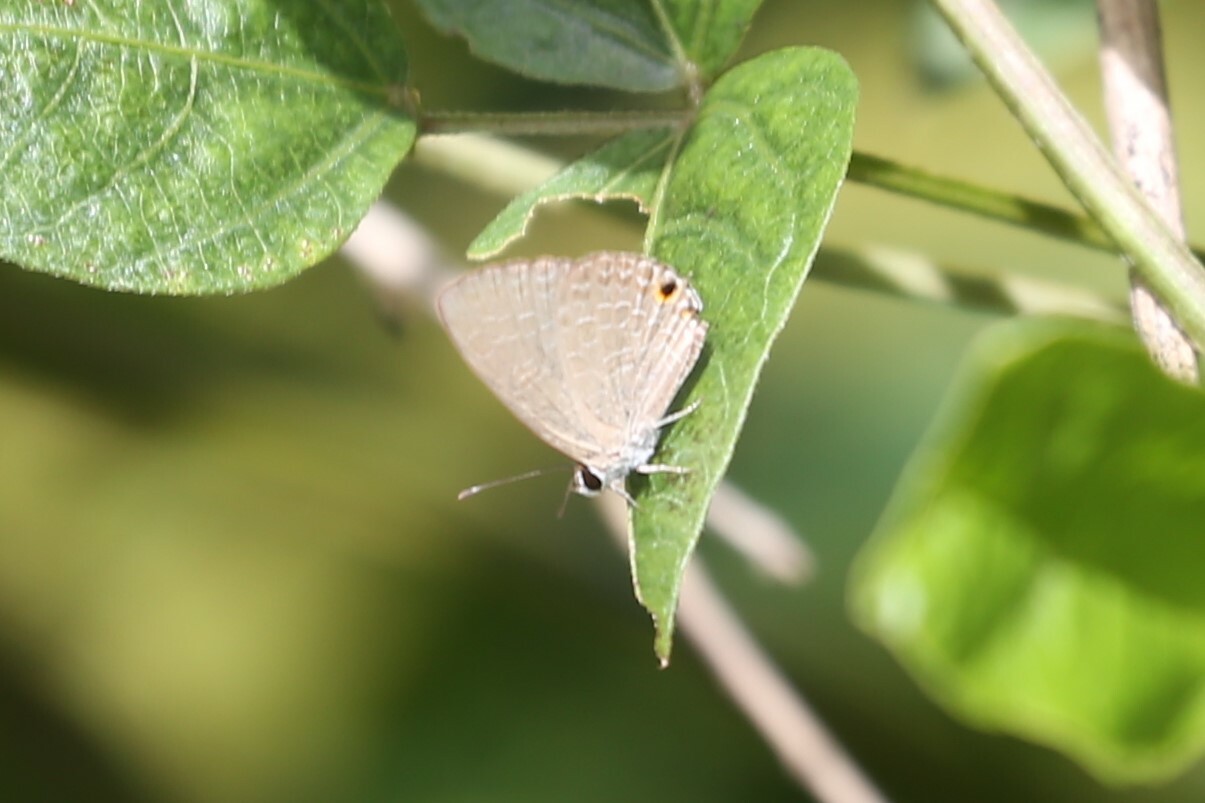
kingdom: Animalia
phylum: Arthropoda
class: Insecta
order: Lepidoptera
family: Lycaenidae
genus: Jamides
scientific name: Jamides phaseli
